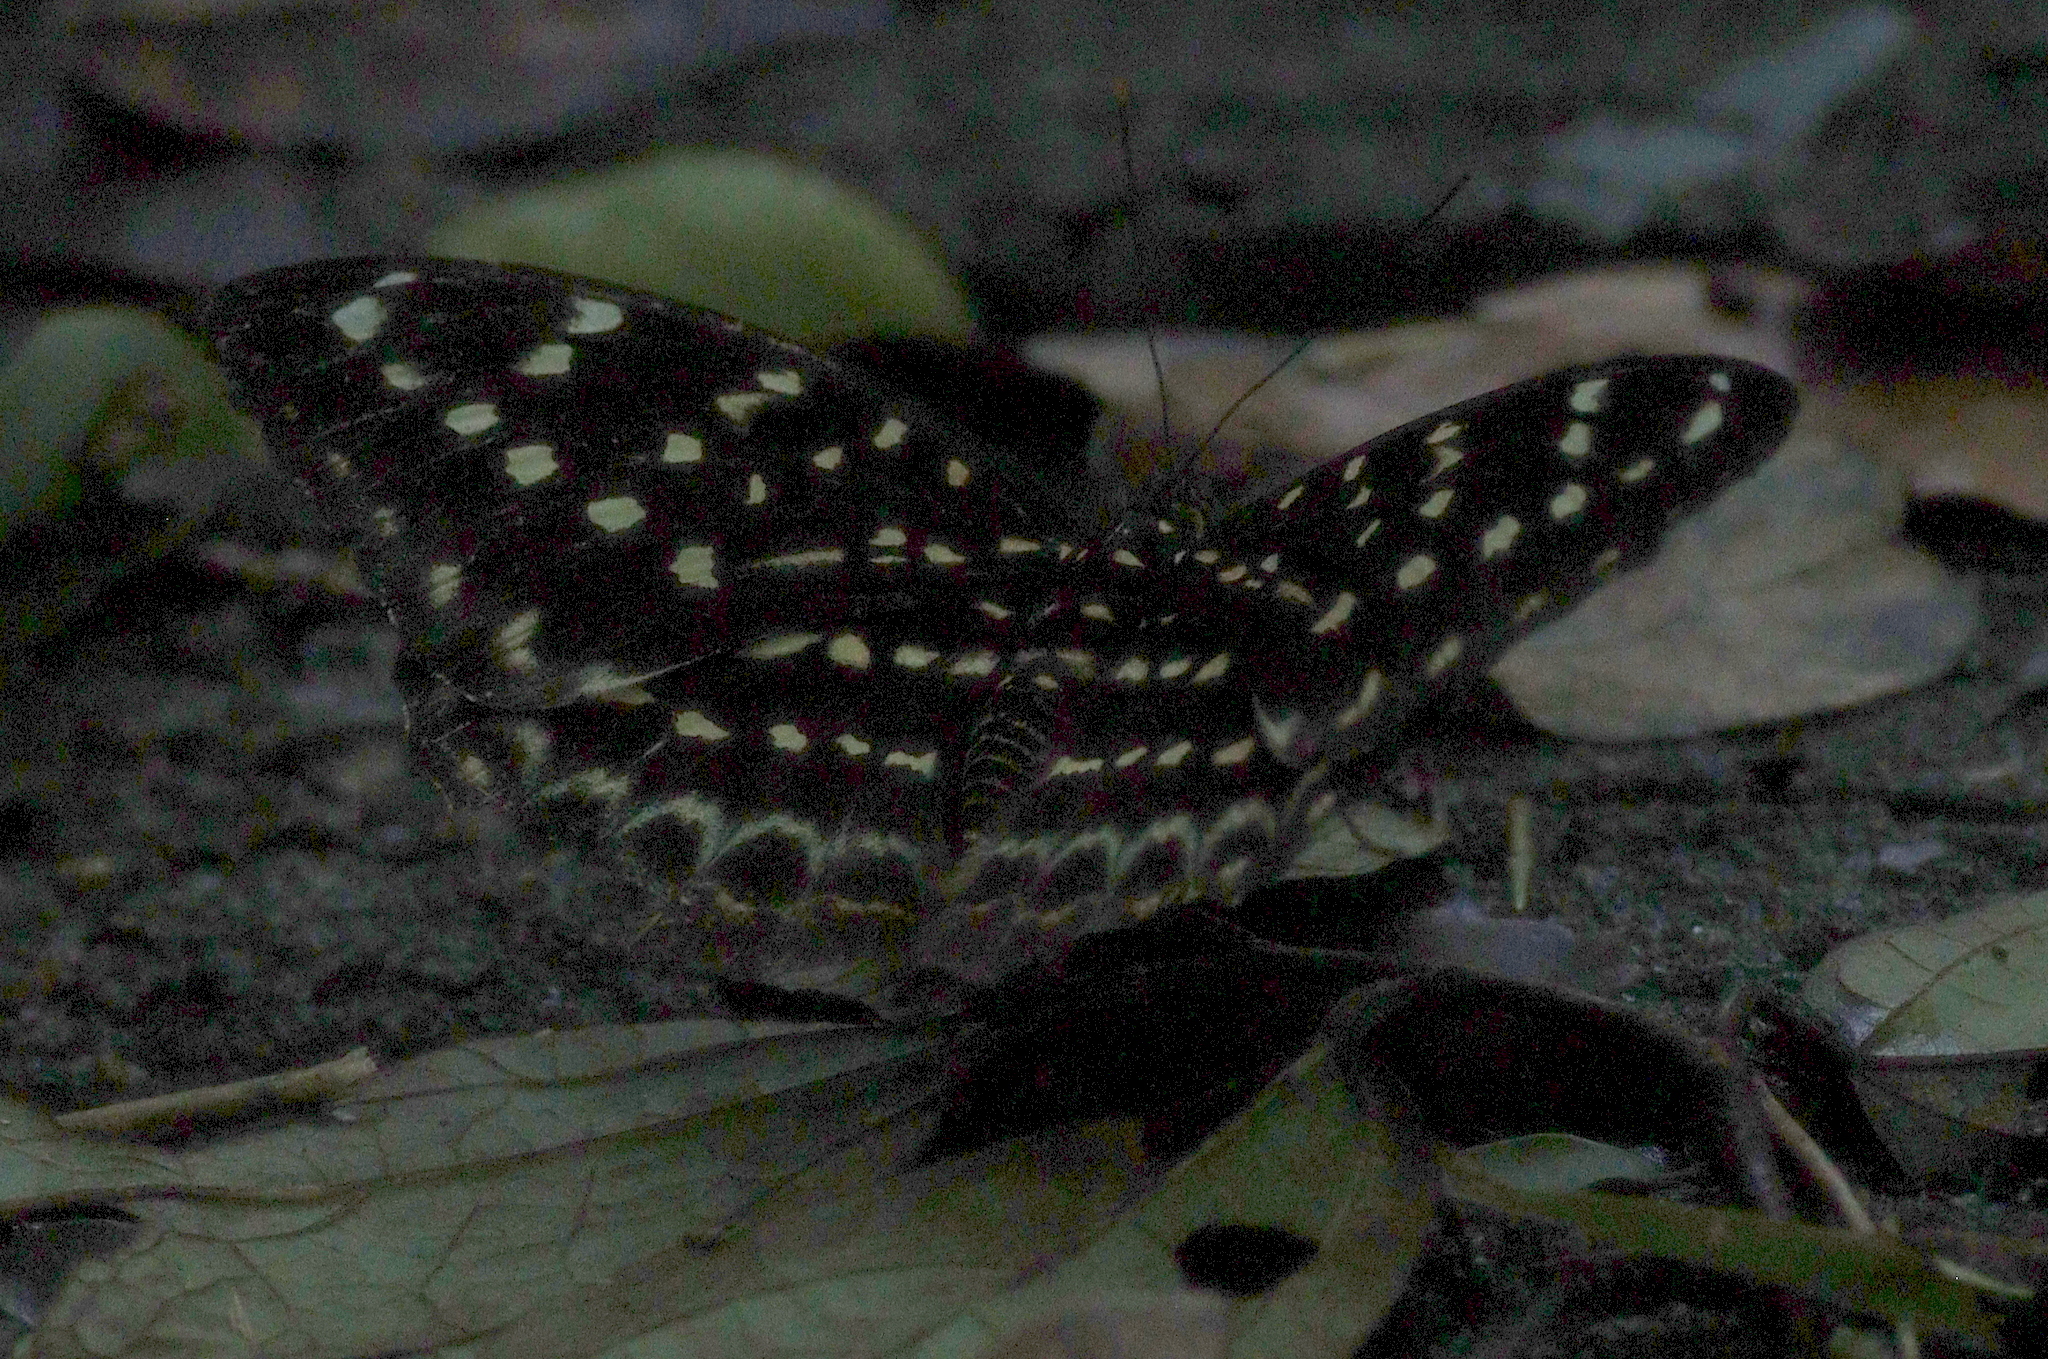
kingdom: Animalia
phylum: Arthropoda
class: Insecta
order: Lepidoptera
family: Nymphalidae
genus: Lexias
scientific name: Lexias pardalis
